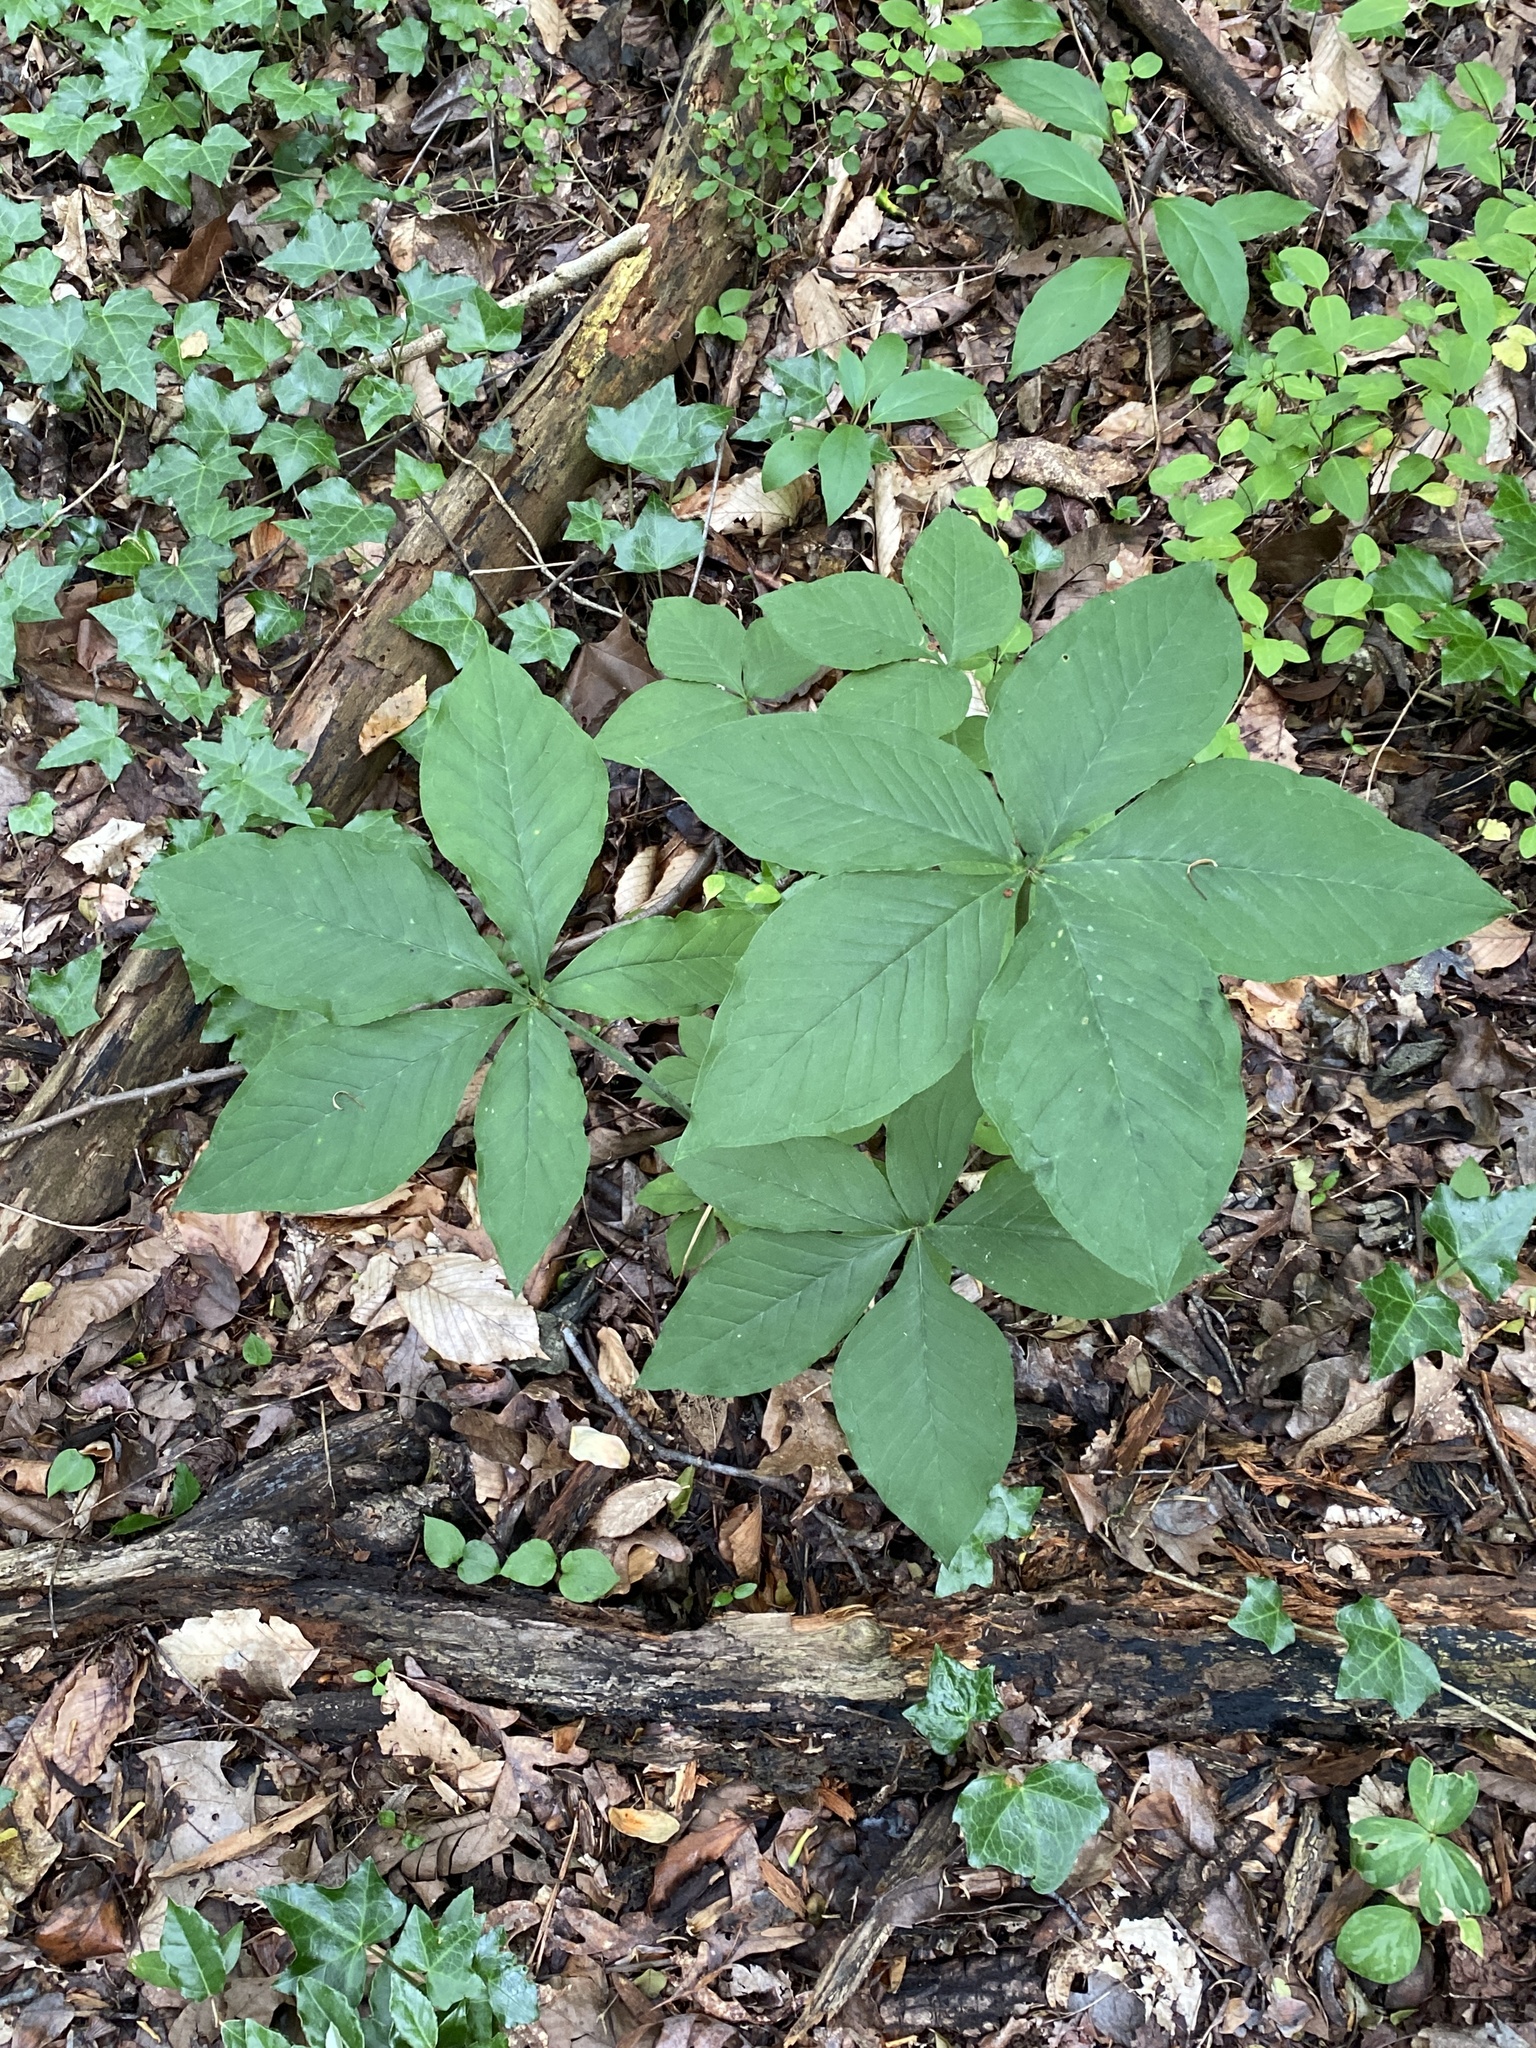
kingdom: Plantae
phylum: Tracheophyta
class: Liliopsida
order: Alismatales
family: Araceae
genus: Arisaema
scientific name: Arisaema quinatum
